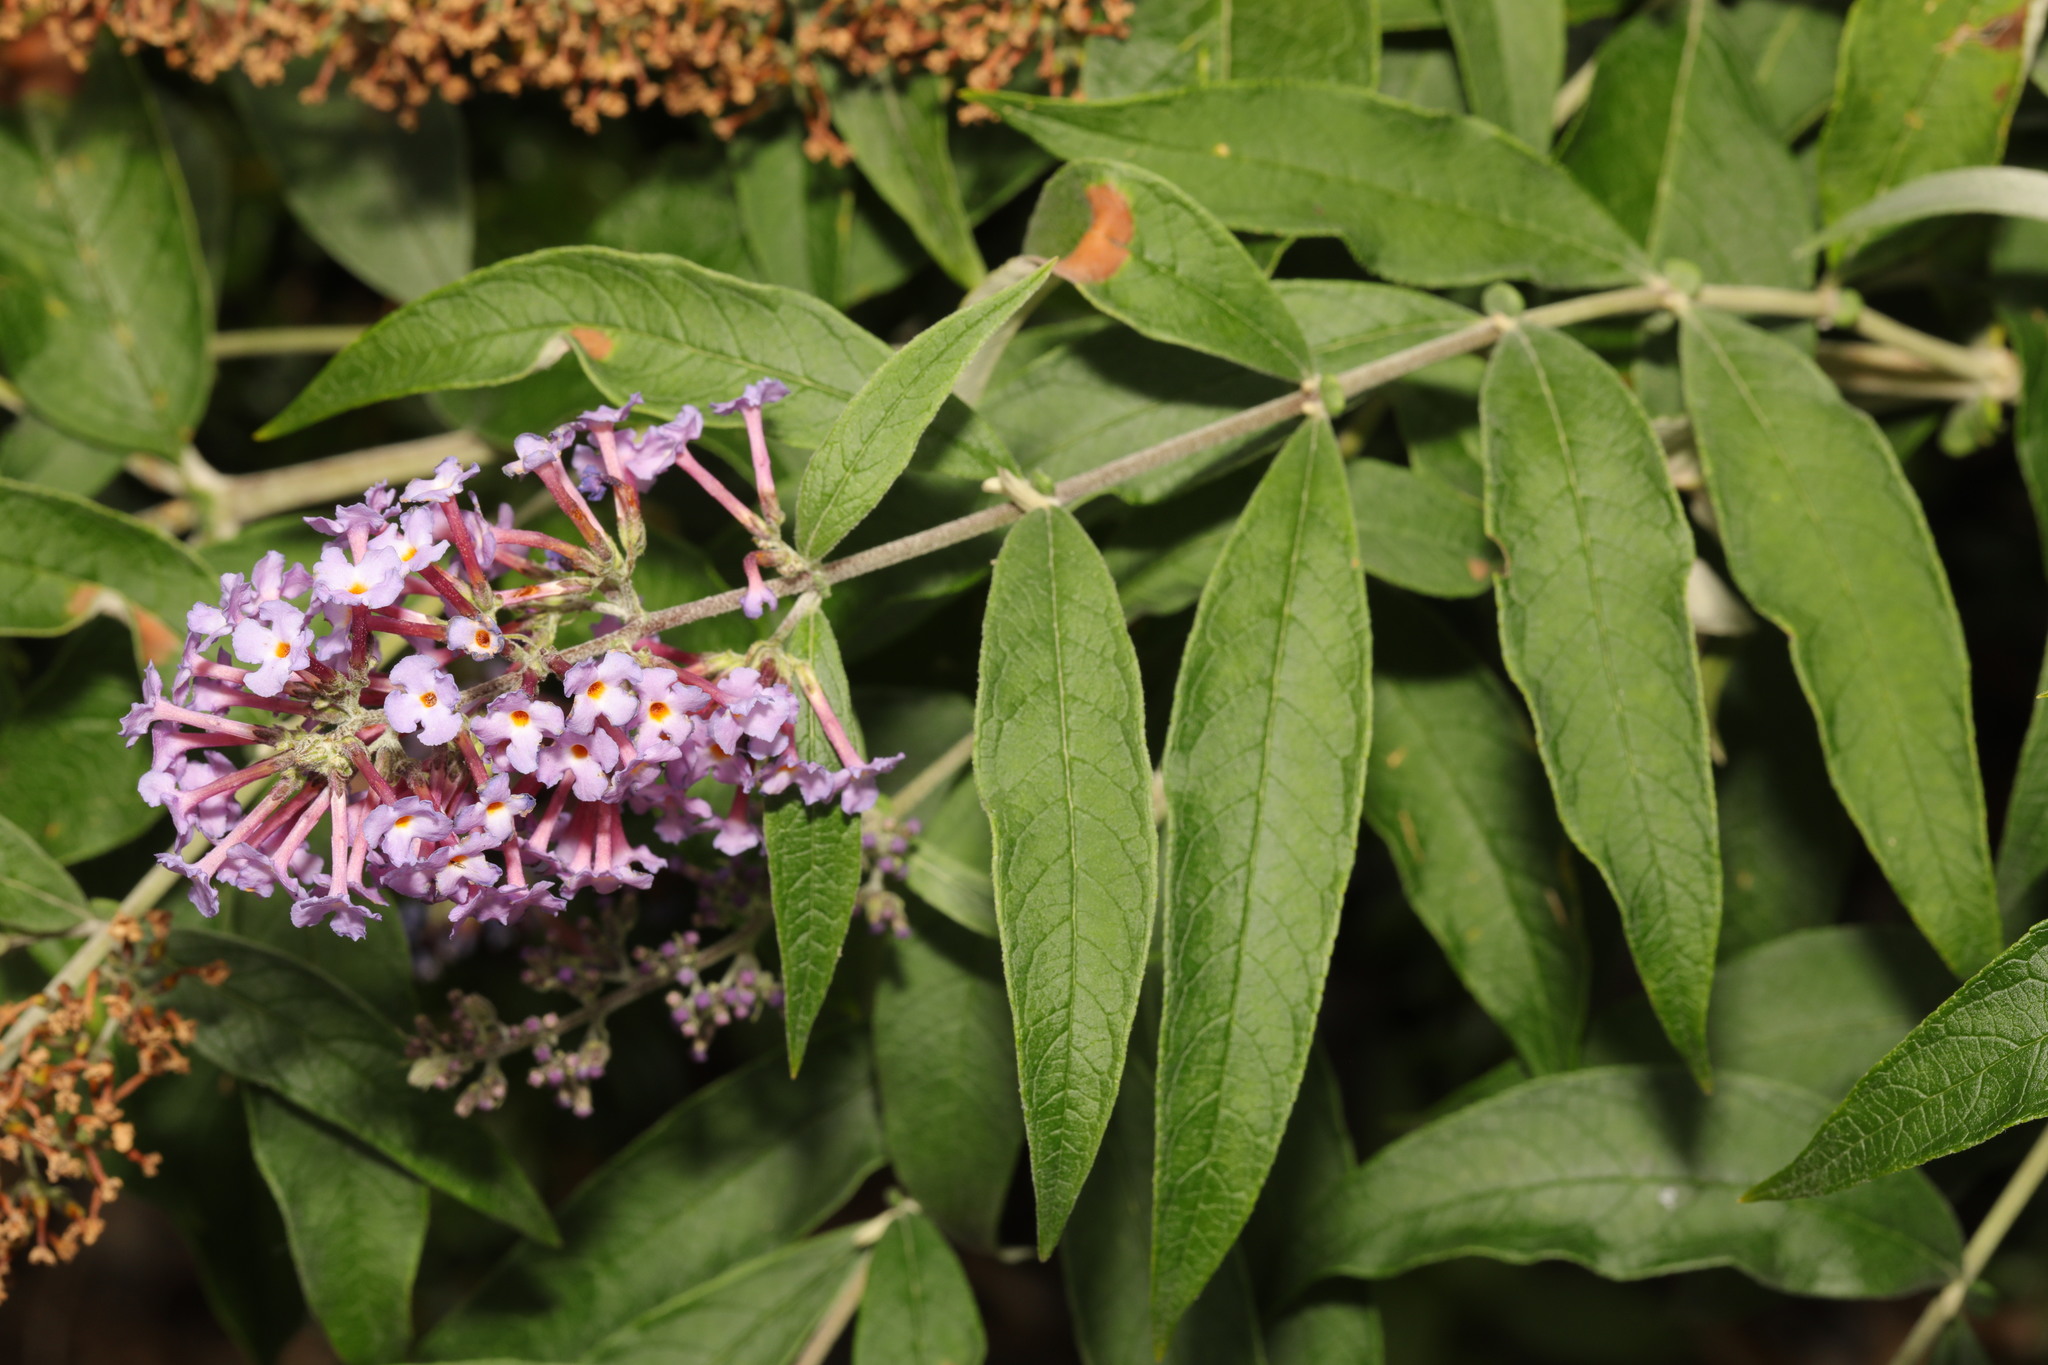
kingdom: Plantae
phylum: Tracheophyta
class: Magnoliopsida
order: Lamiales
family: Scrophulariaceae
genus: Buddleja
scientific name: Buddleja davidii
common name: Butterfly-bush
